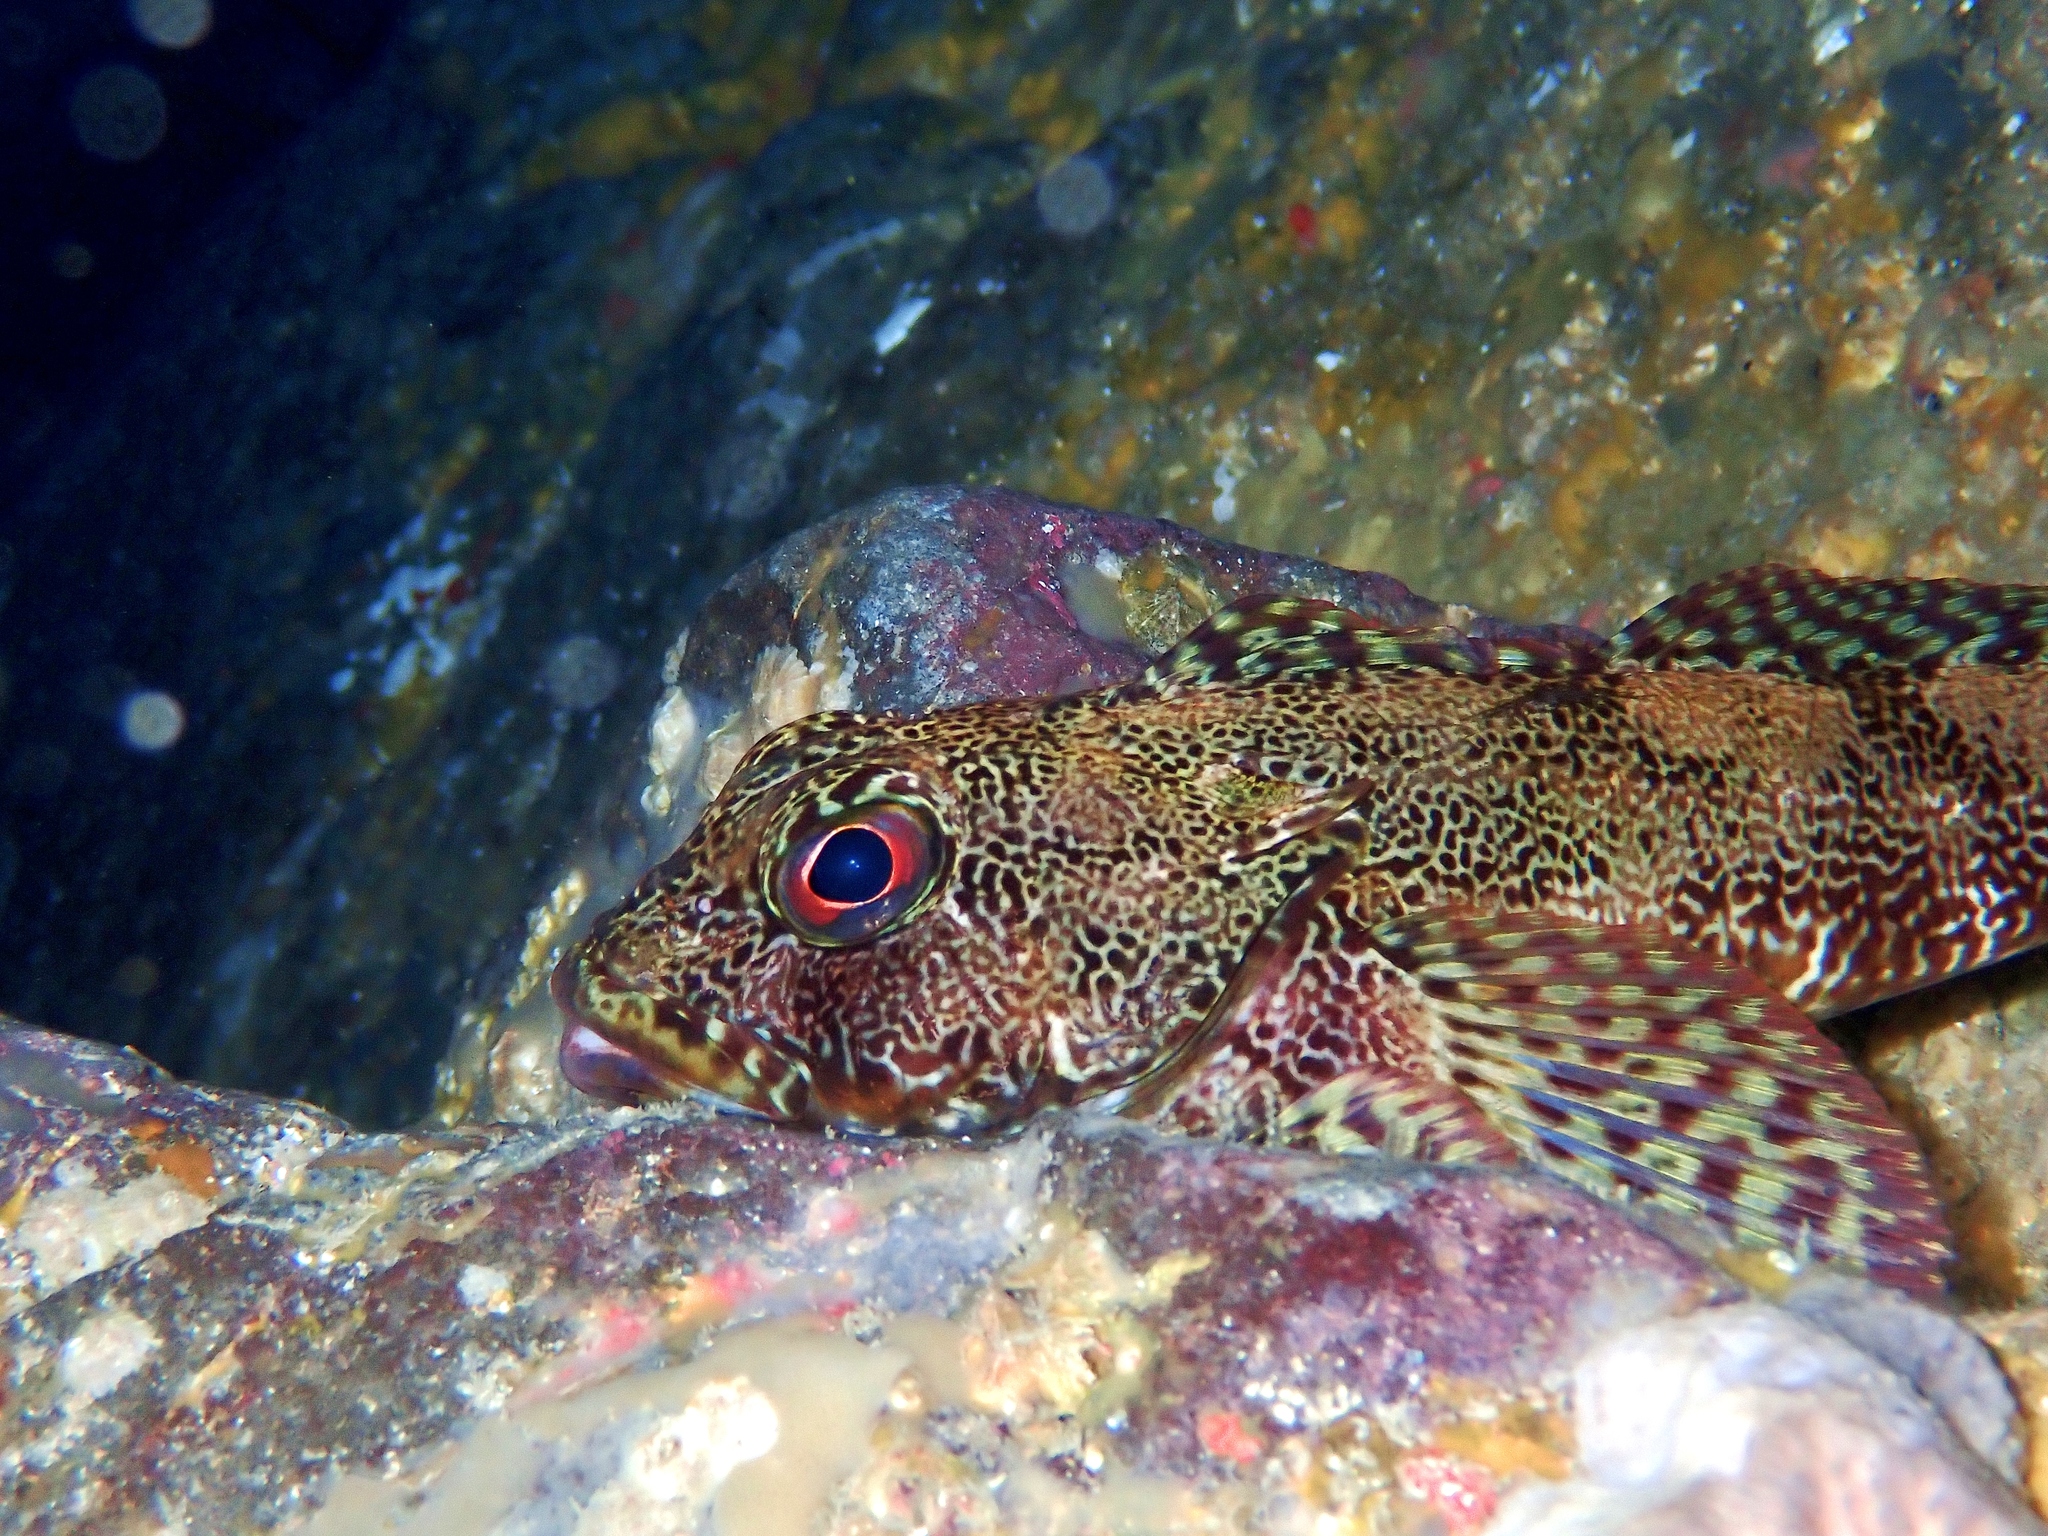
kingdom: Animalia
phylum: Chordata
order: Perciformes
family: Bovichtidae
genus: Bovichtus
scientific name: Bovichtus variegatus
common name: Thornfish
